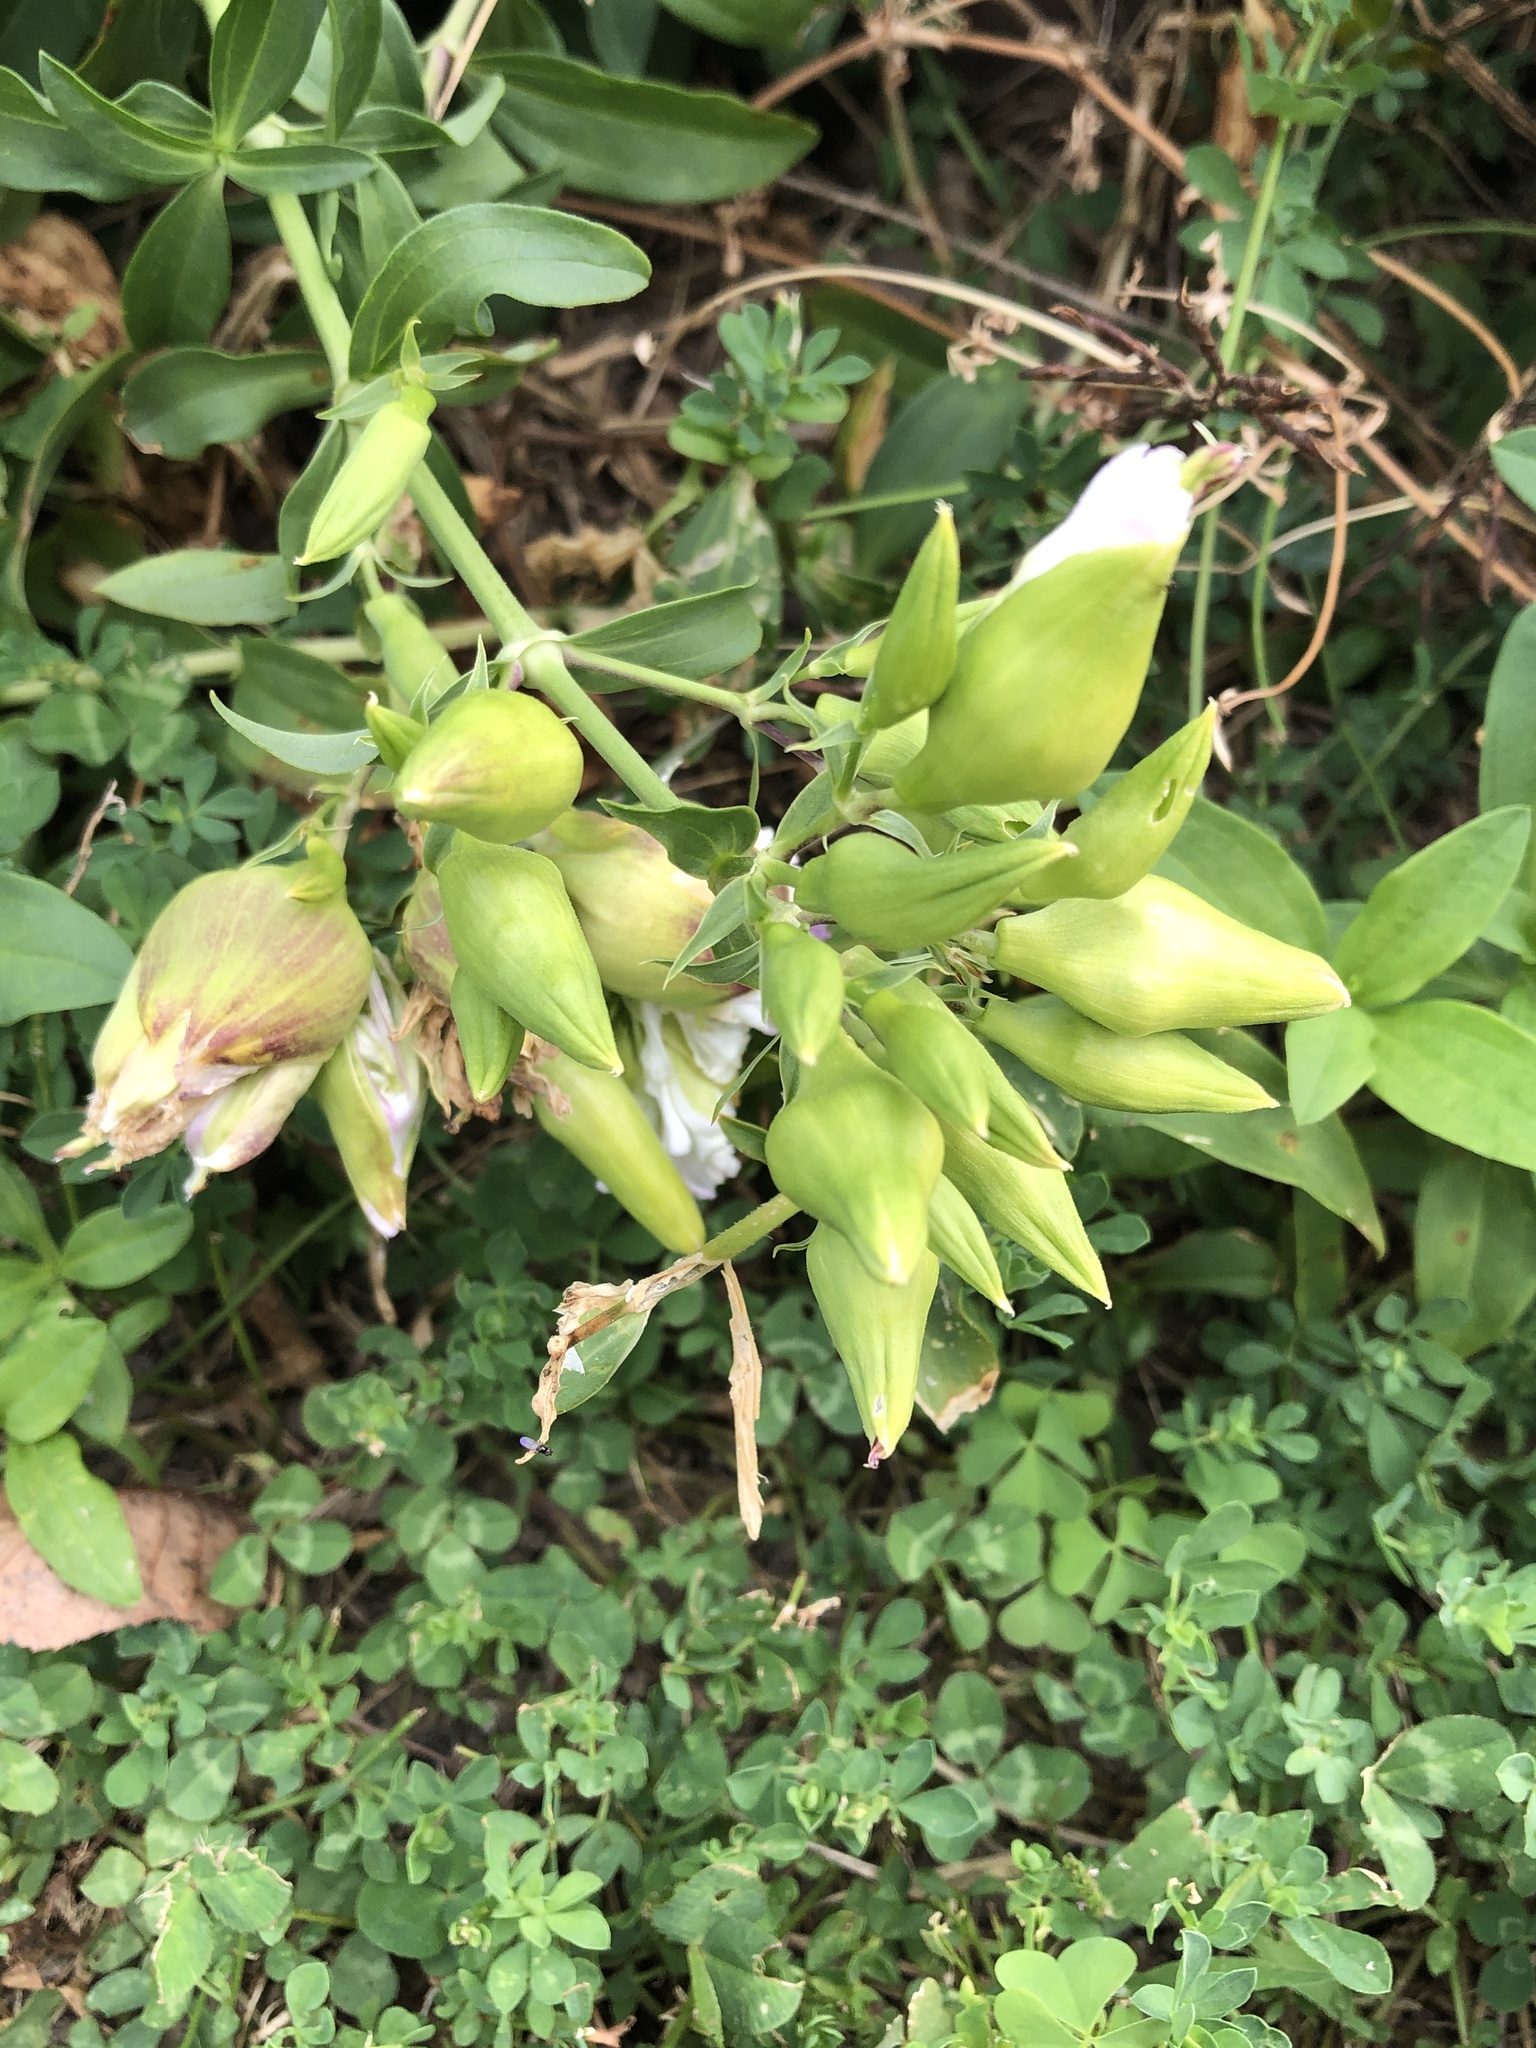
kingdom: Plantae
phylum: Tracheophyta
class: Magnoliopsida
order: Caryophyllales
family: Caryophyllaceae
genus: Saponaria
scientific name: Saponaria officinalis
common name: Soapwort
